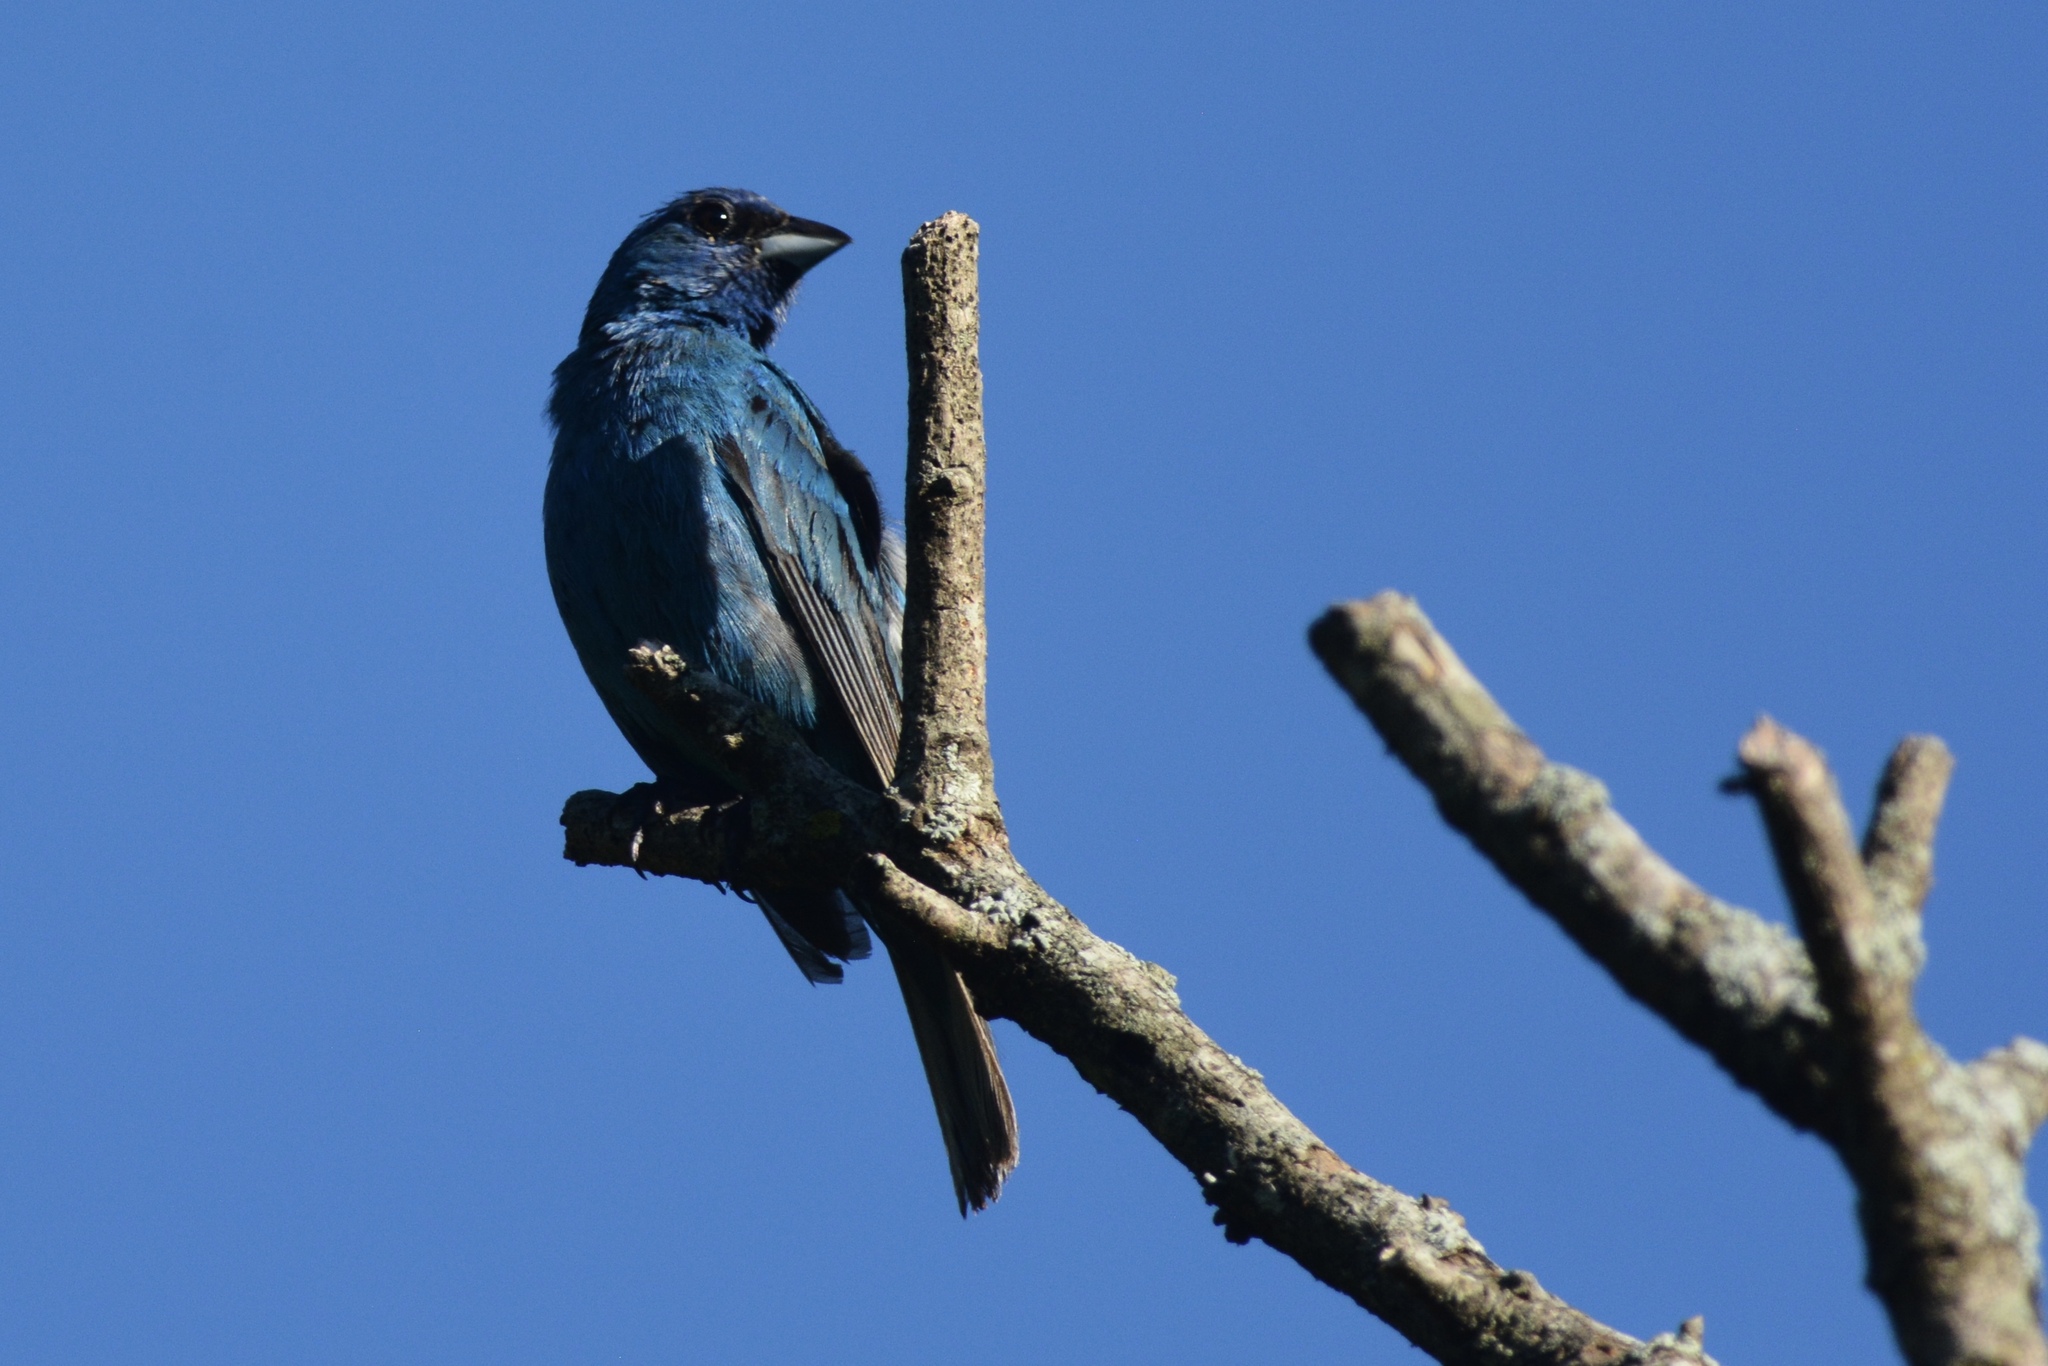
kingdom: Animalia
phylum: Chordata
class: Aves
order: Passeriformes
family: Cardinalidae
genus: Passerina
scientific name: Passerina cyanea
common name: Indigo bunting
